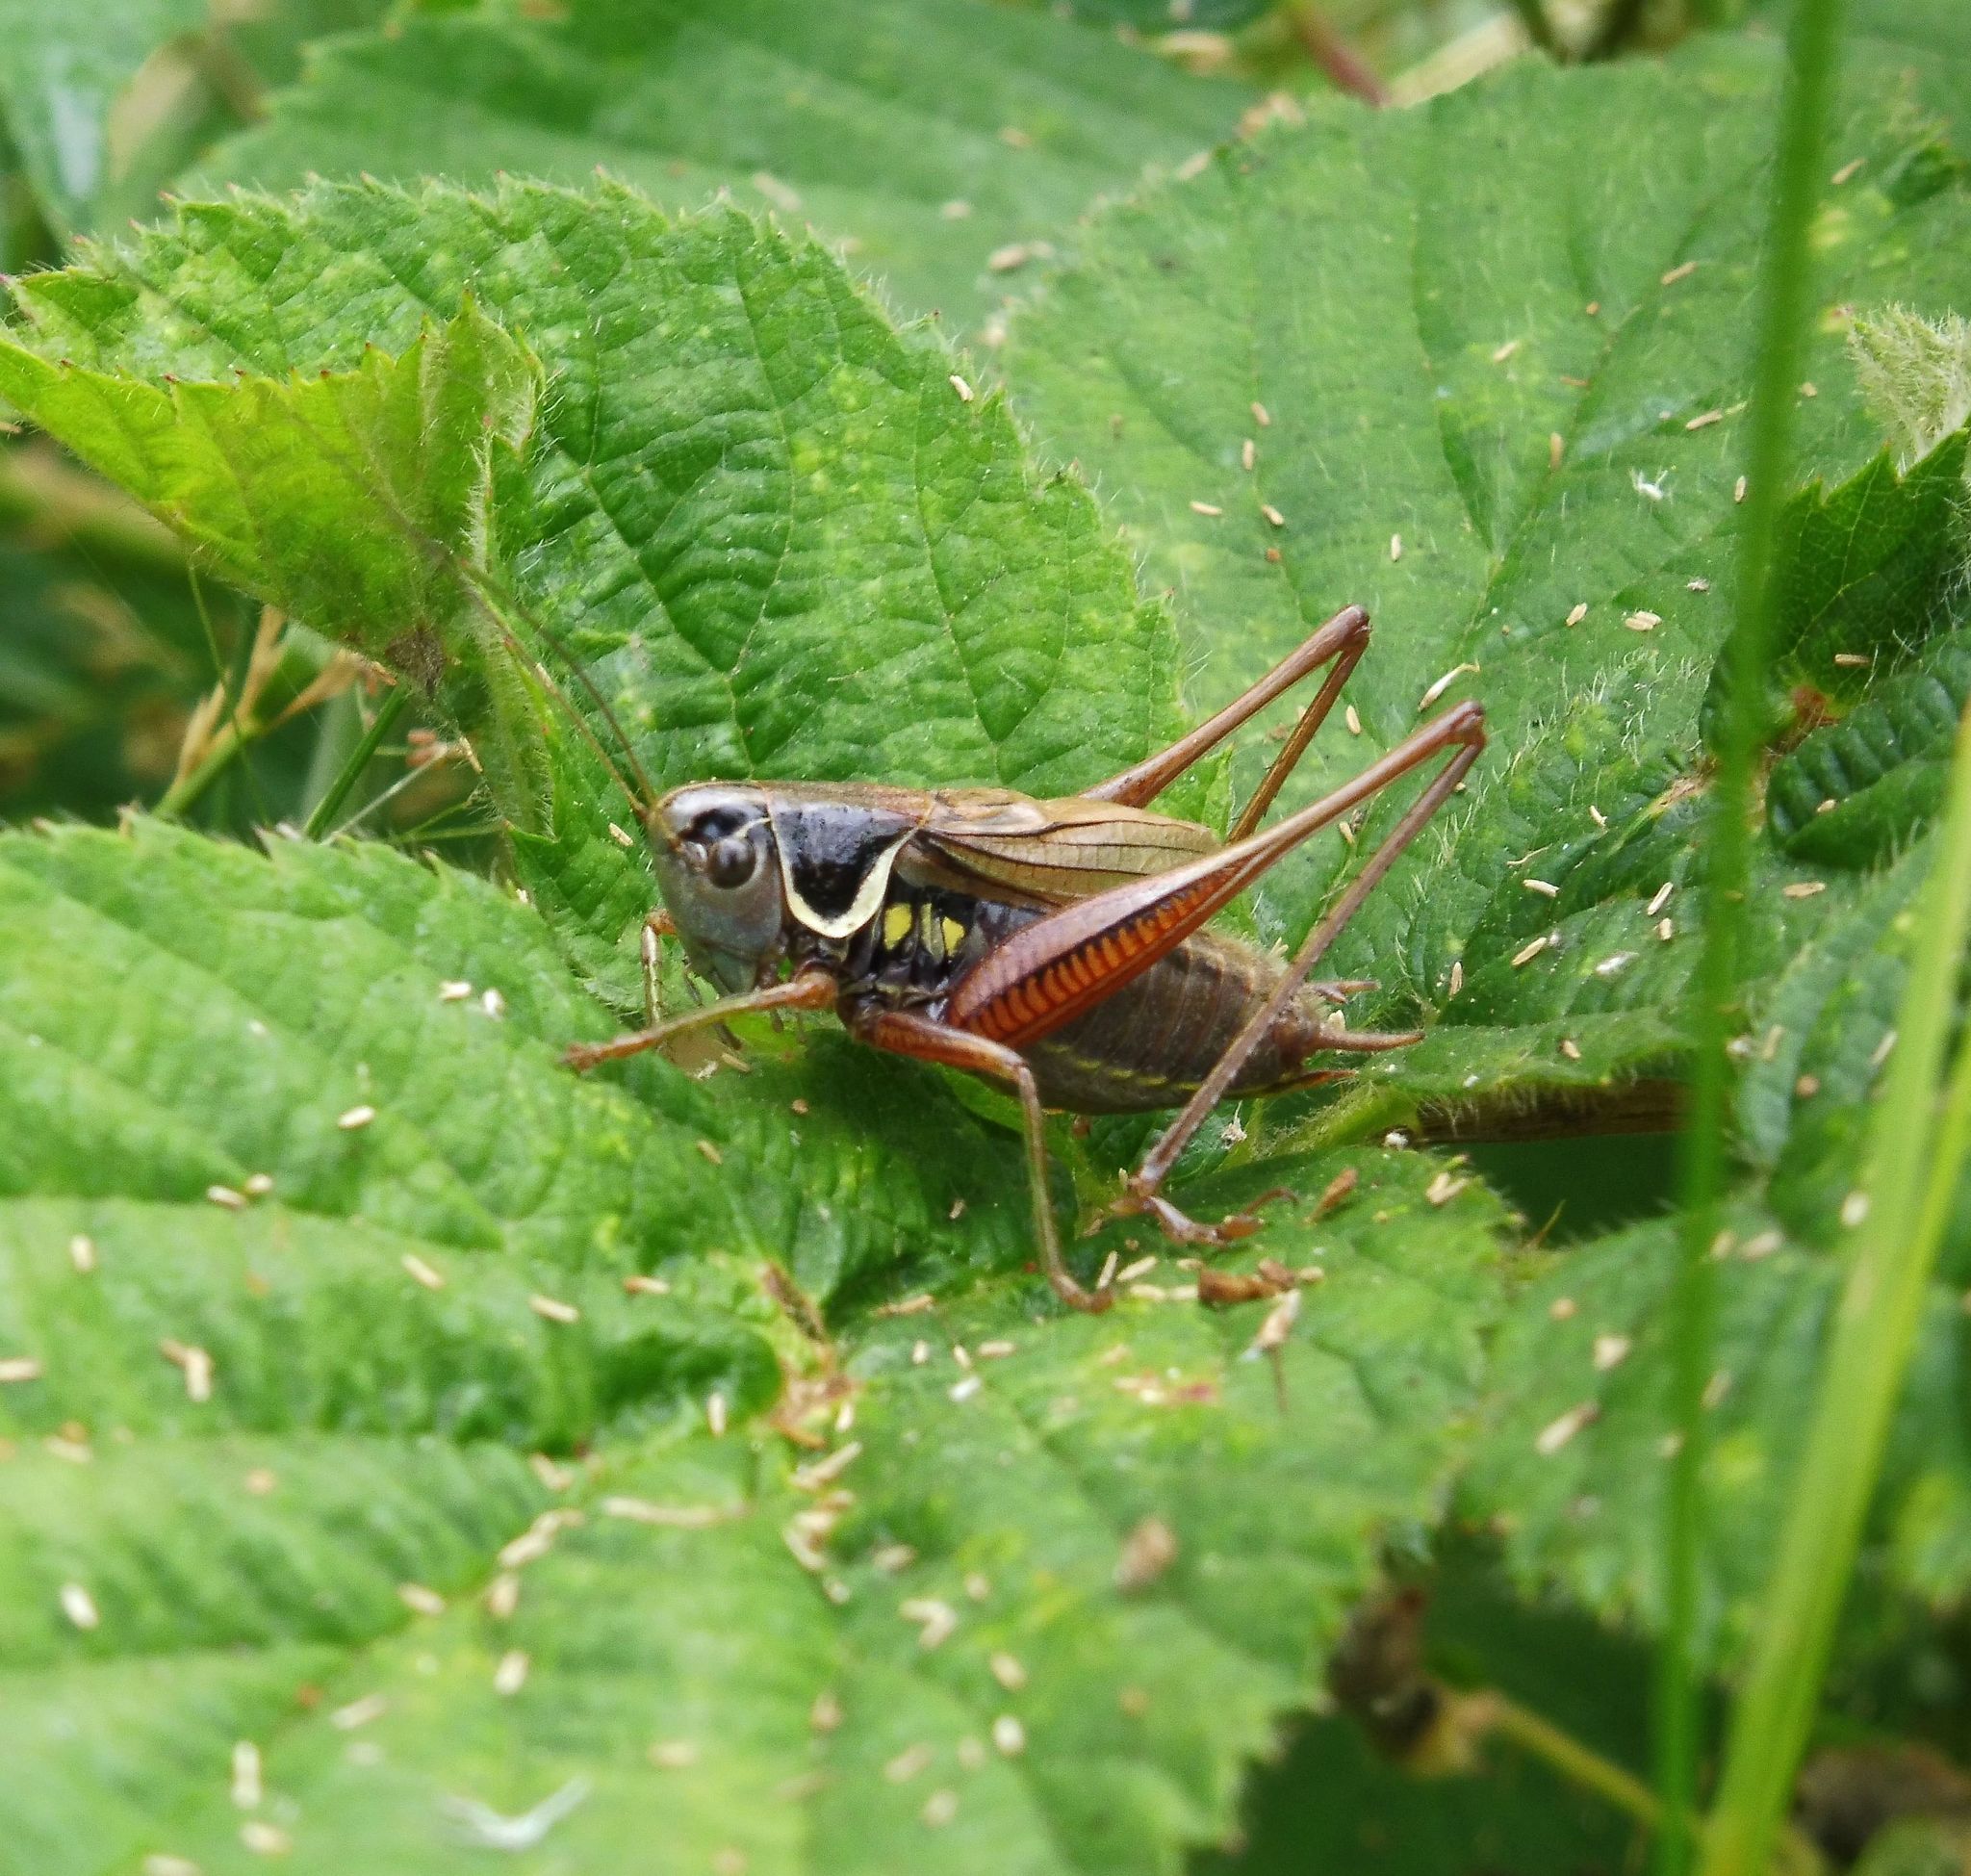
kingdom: Animalia
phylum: Arthropoda
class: Insecta
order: Orthoptera
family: Tettigoniidae
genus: Roeseliana
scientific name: Roeseliana roeselii
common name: Roesel's bush cricket
